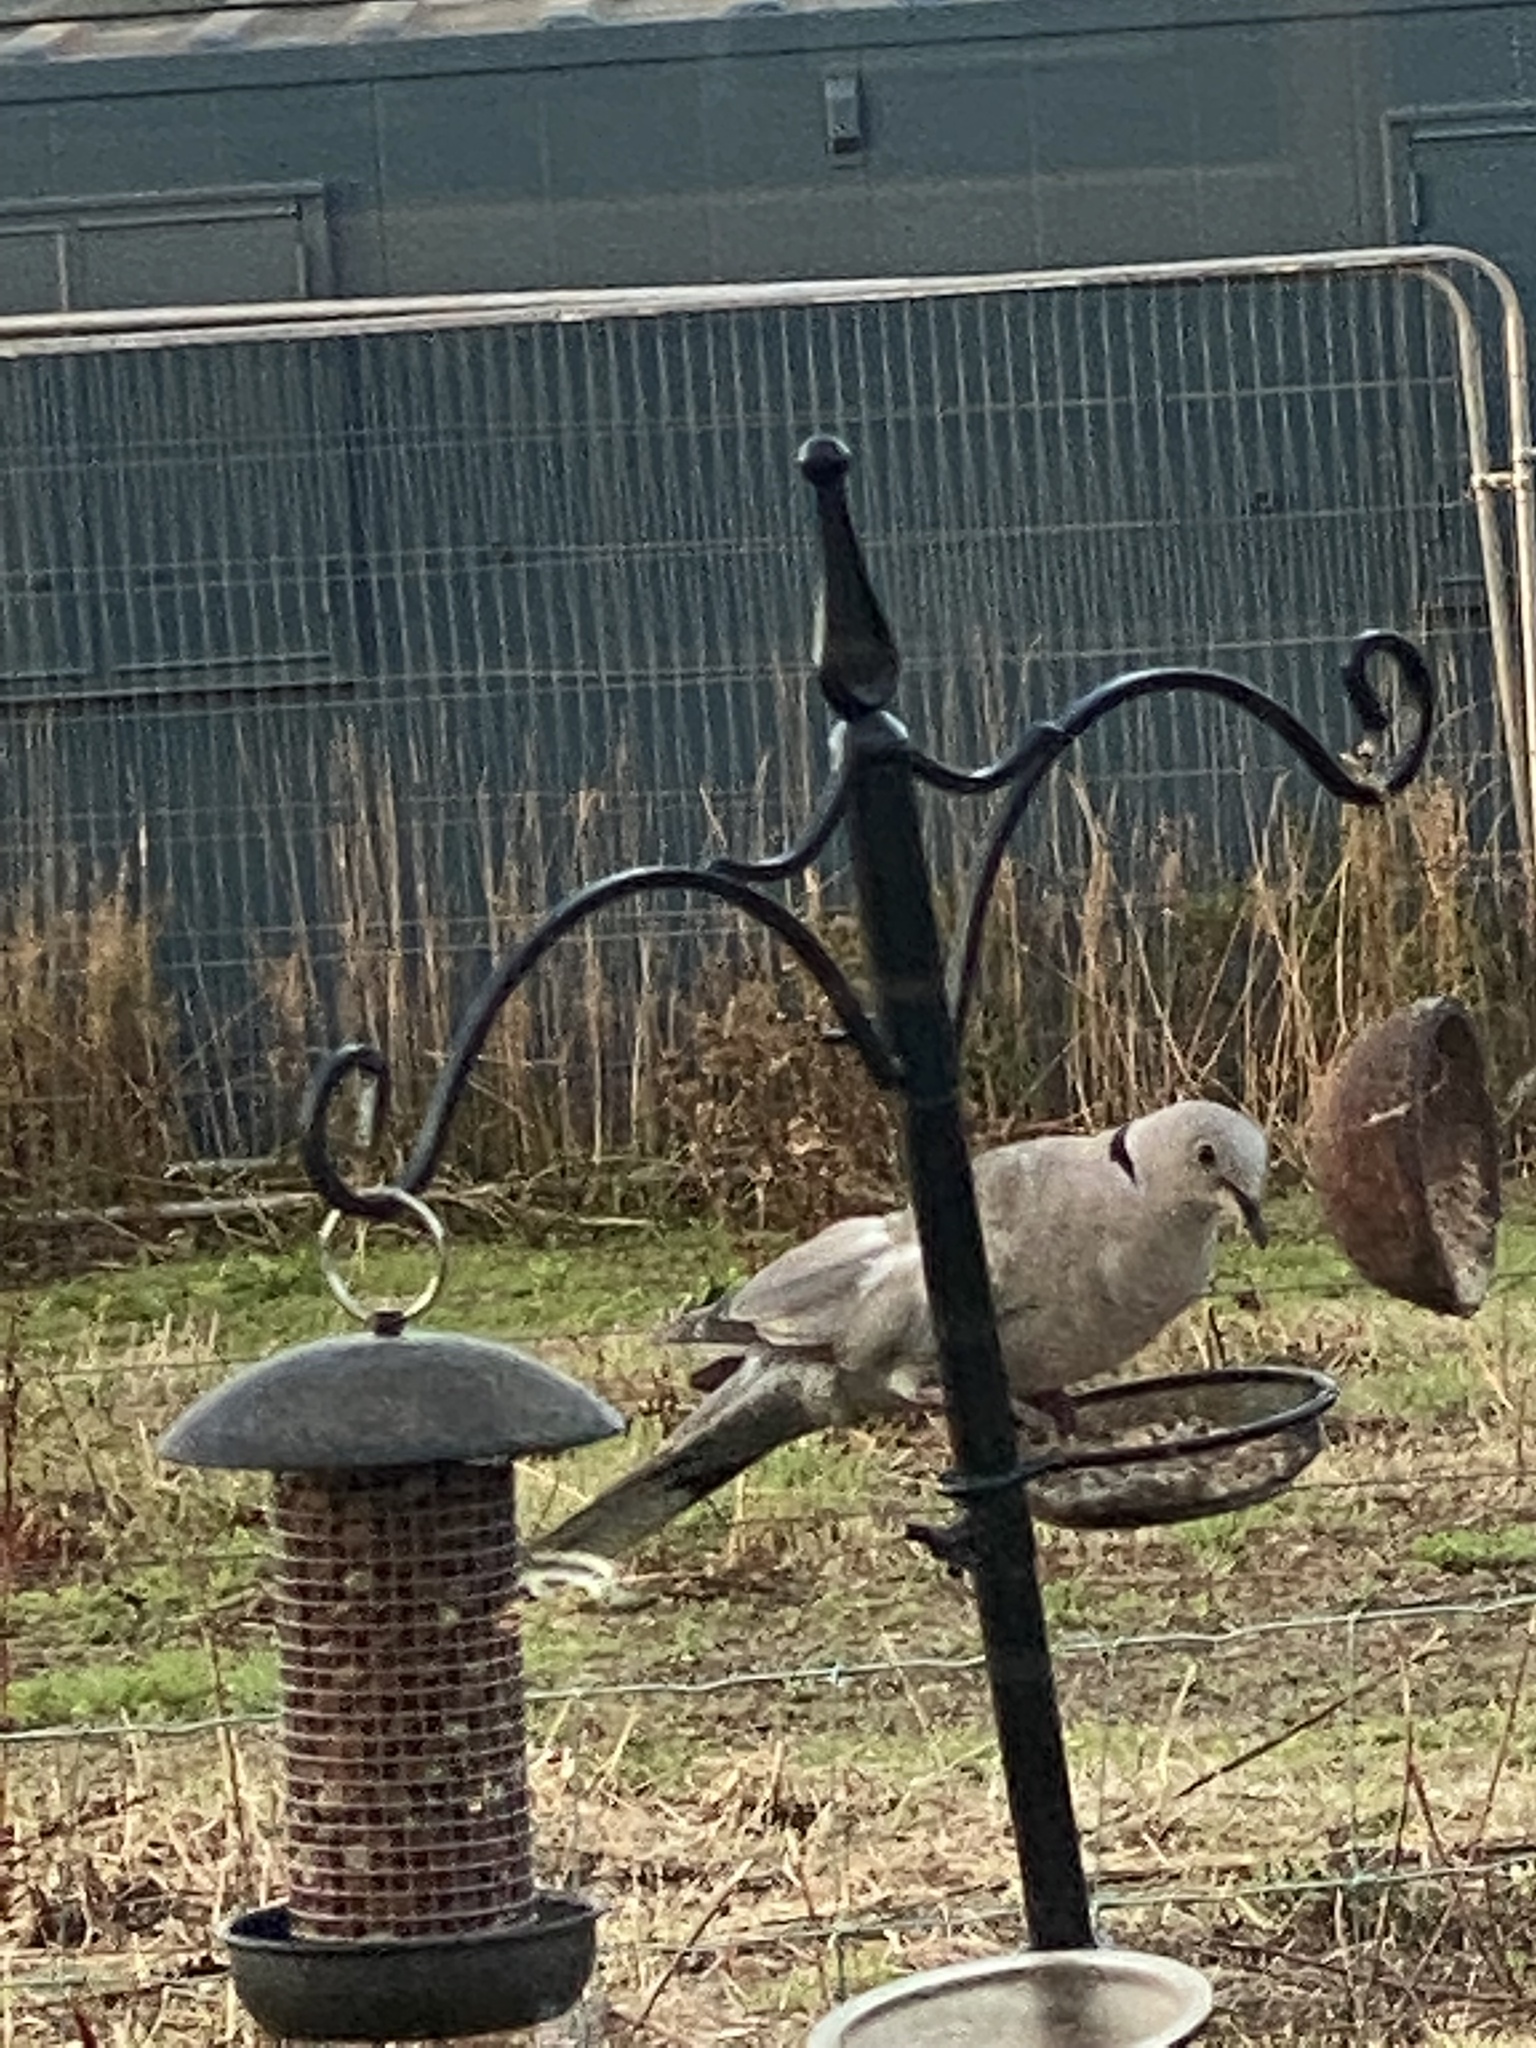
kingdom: Animalia
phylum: Chordata
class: Aves
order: Columbiformes
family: Columbidae
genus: Streptopelia
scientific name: Streptopelia decaocto
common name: Eurasian collared dove
